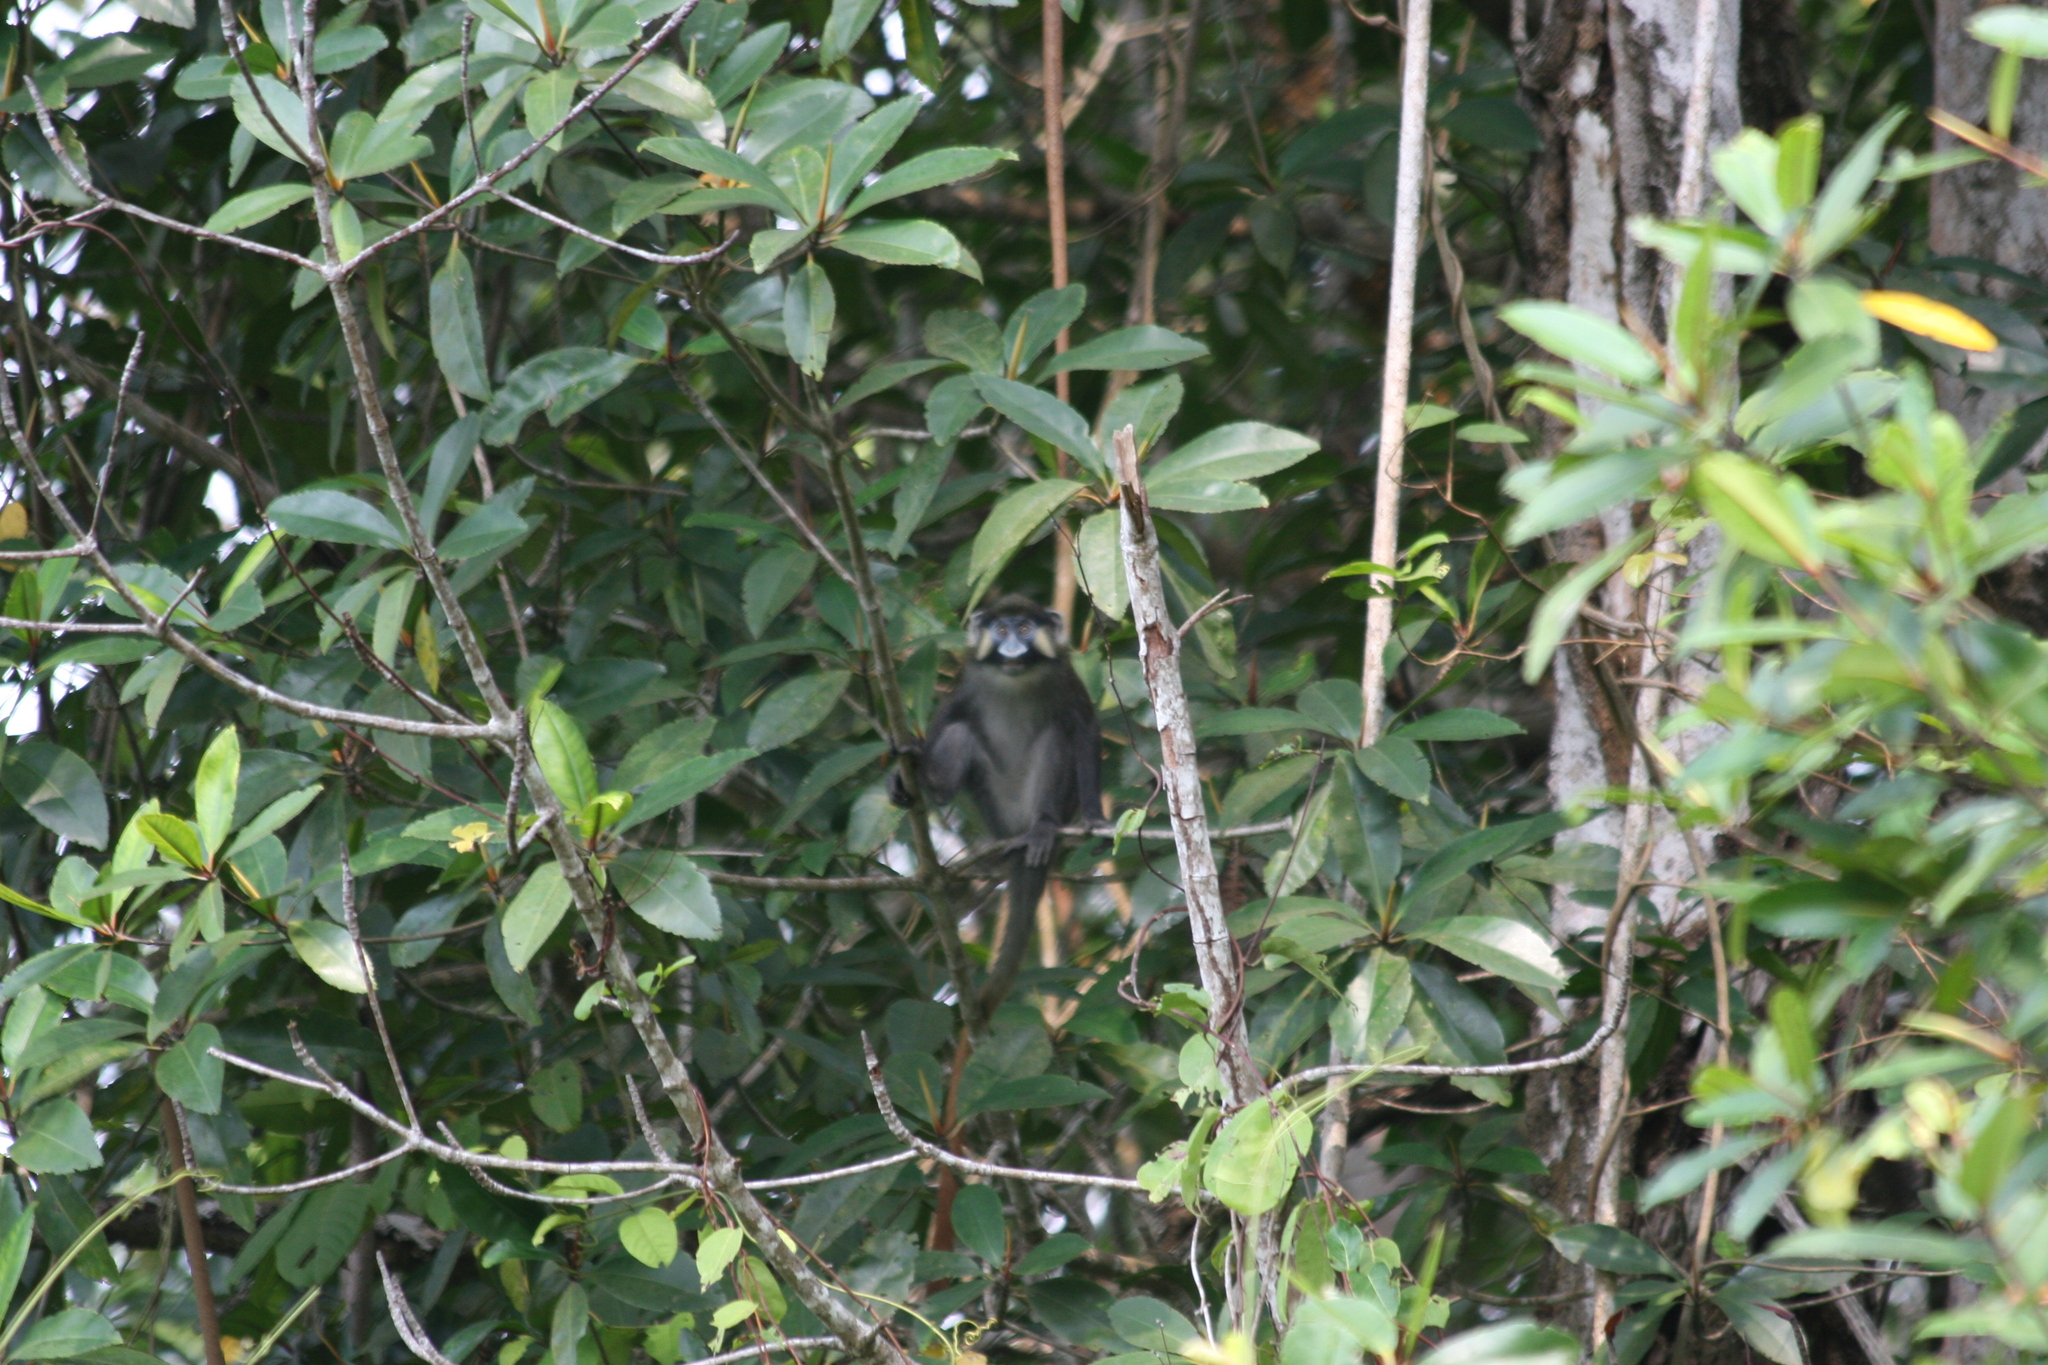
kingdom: Animalia
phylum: Chordata
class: Mammalia
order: Primates
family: Cercopithecidae
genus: Cercopithecus
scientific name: Cercopithecus cephus
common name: Moustached guenon
